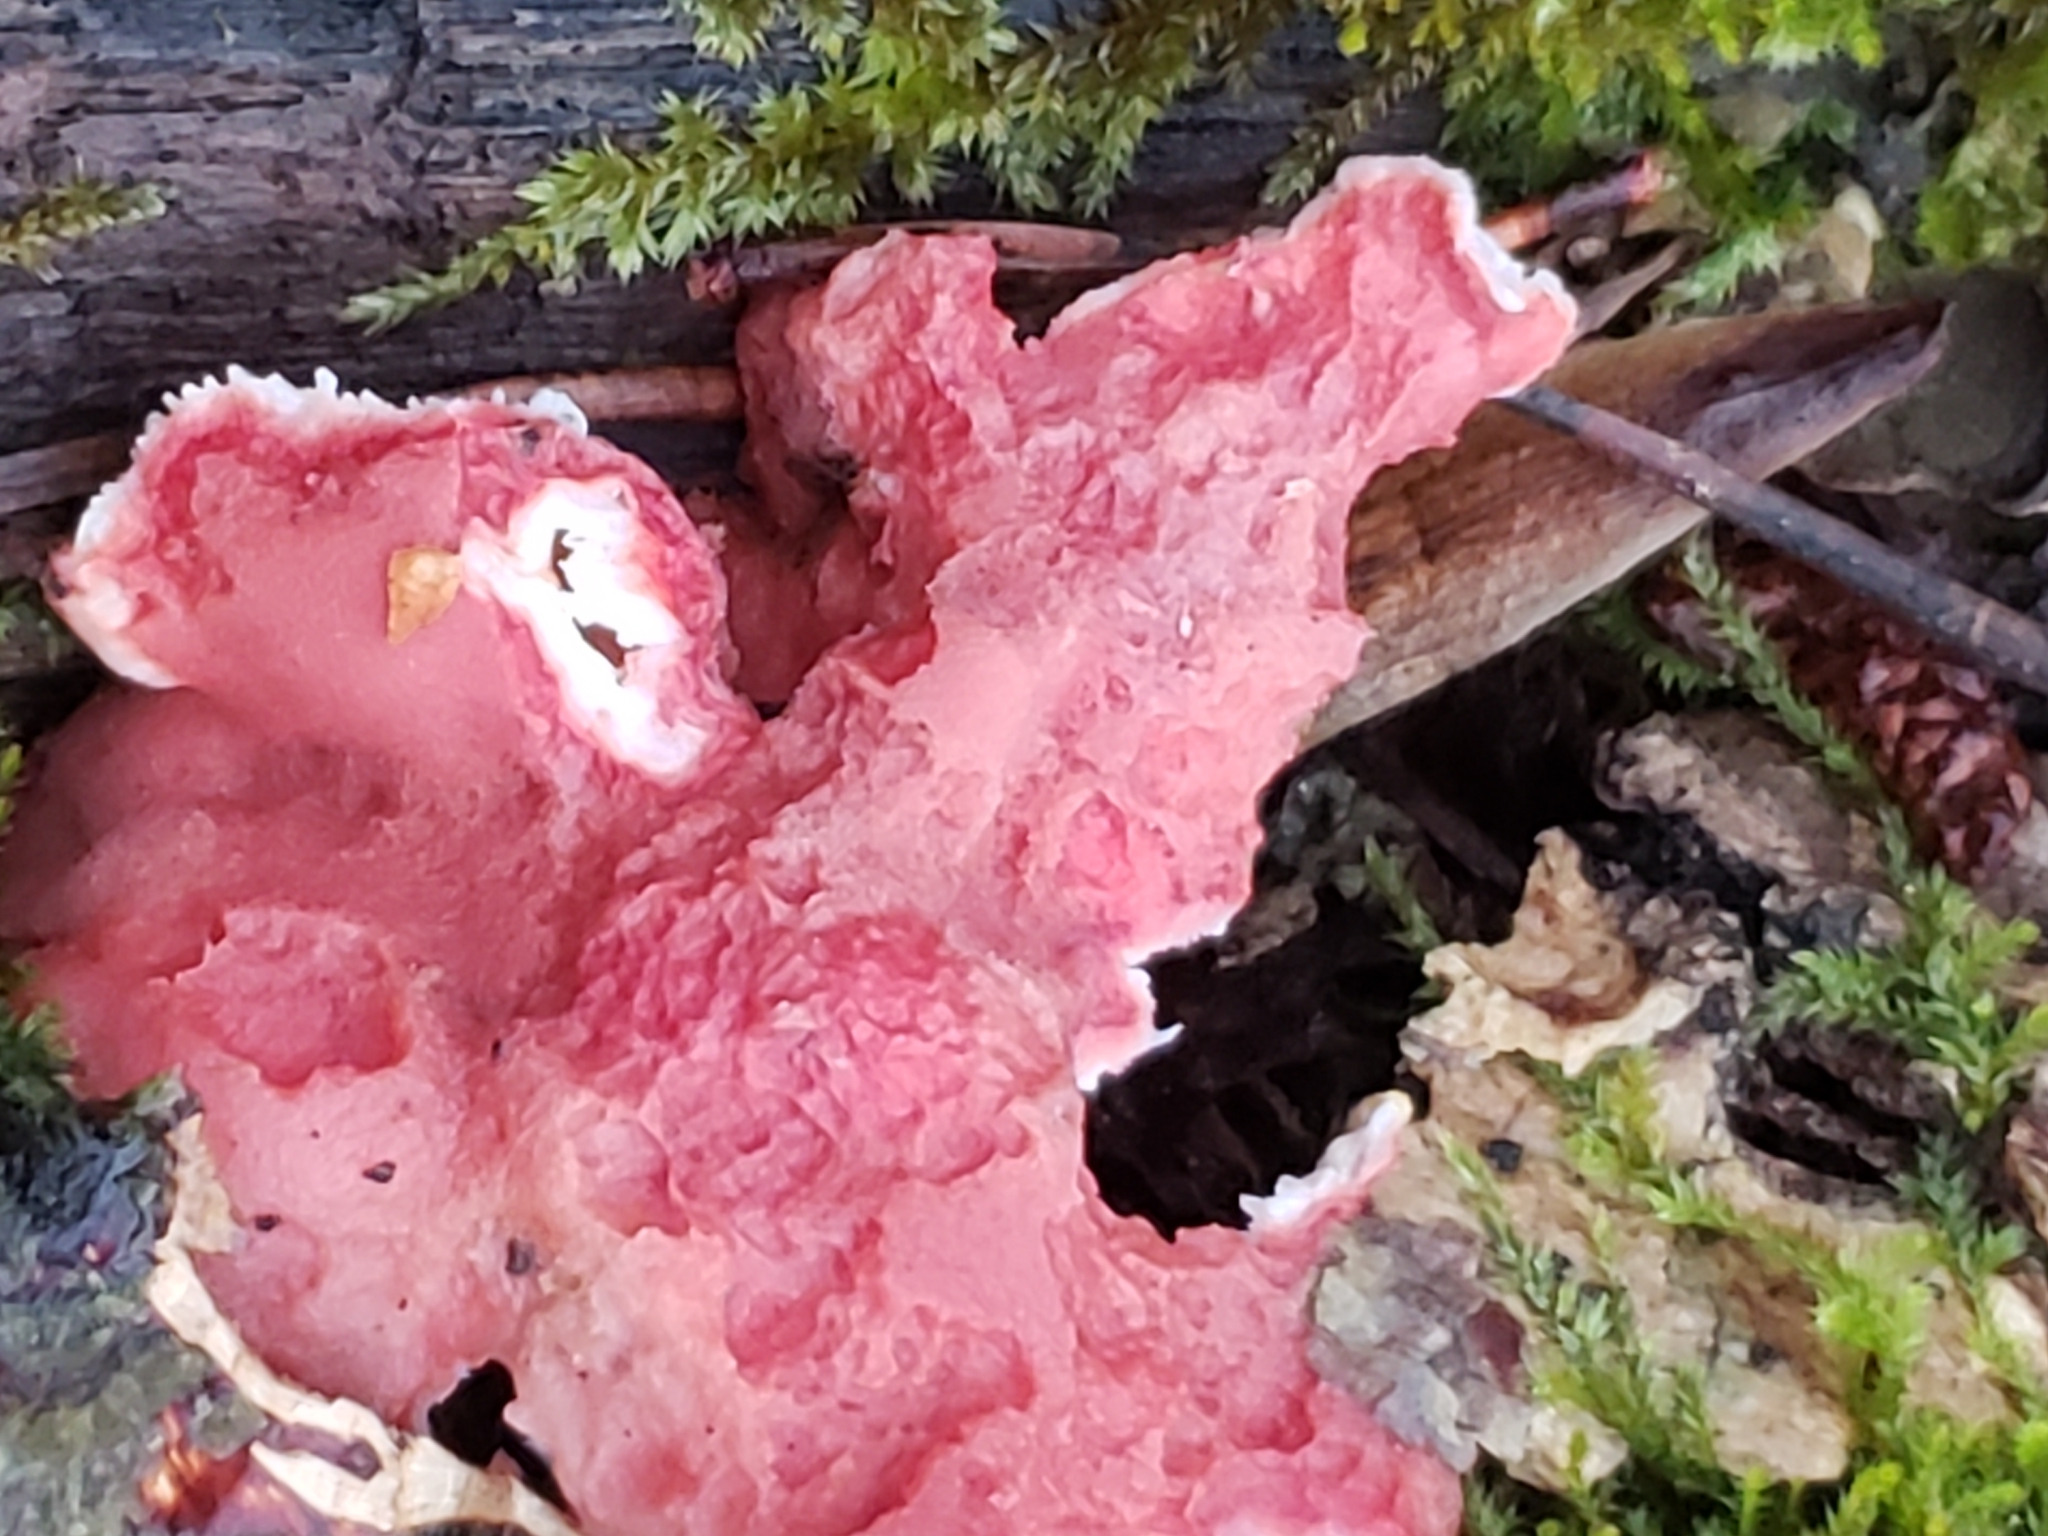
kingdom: Fungi
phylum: Basidiomycota
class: Agaricomycetes
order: Polyporales
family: Irpicaceae
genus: Byssomerulius
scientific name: Byssomerulius incarnatus
